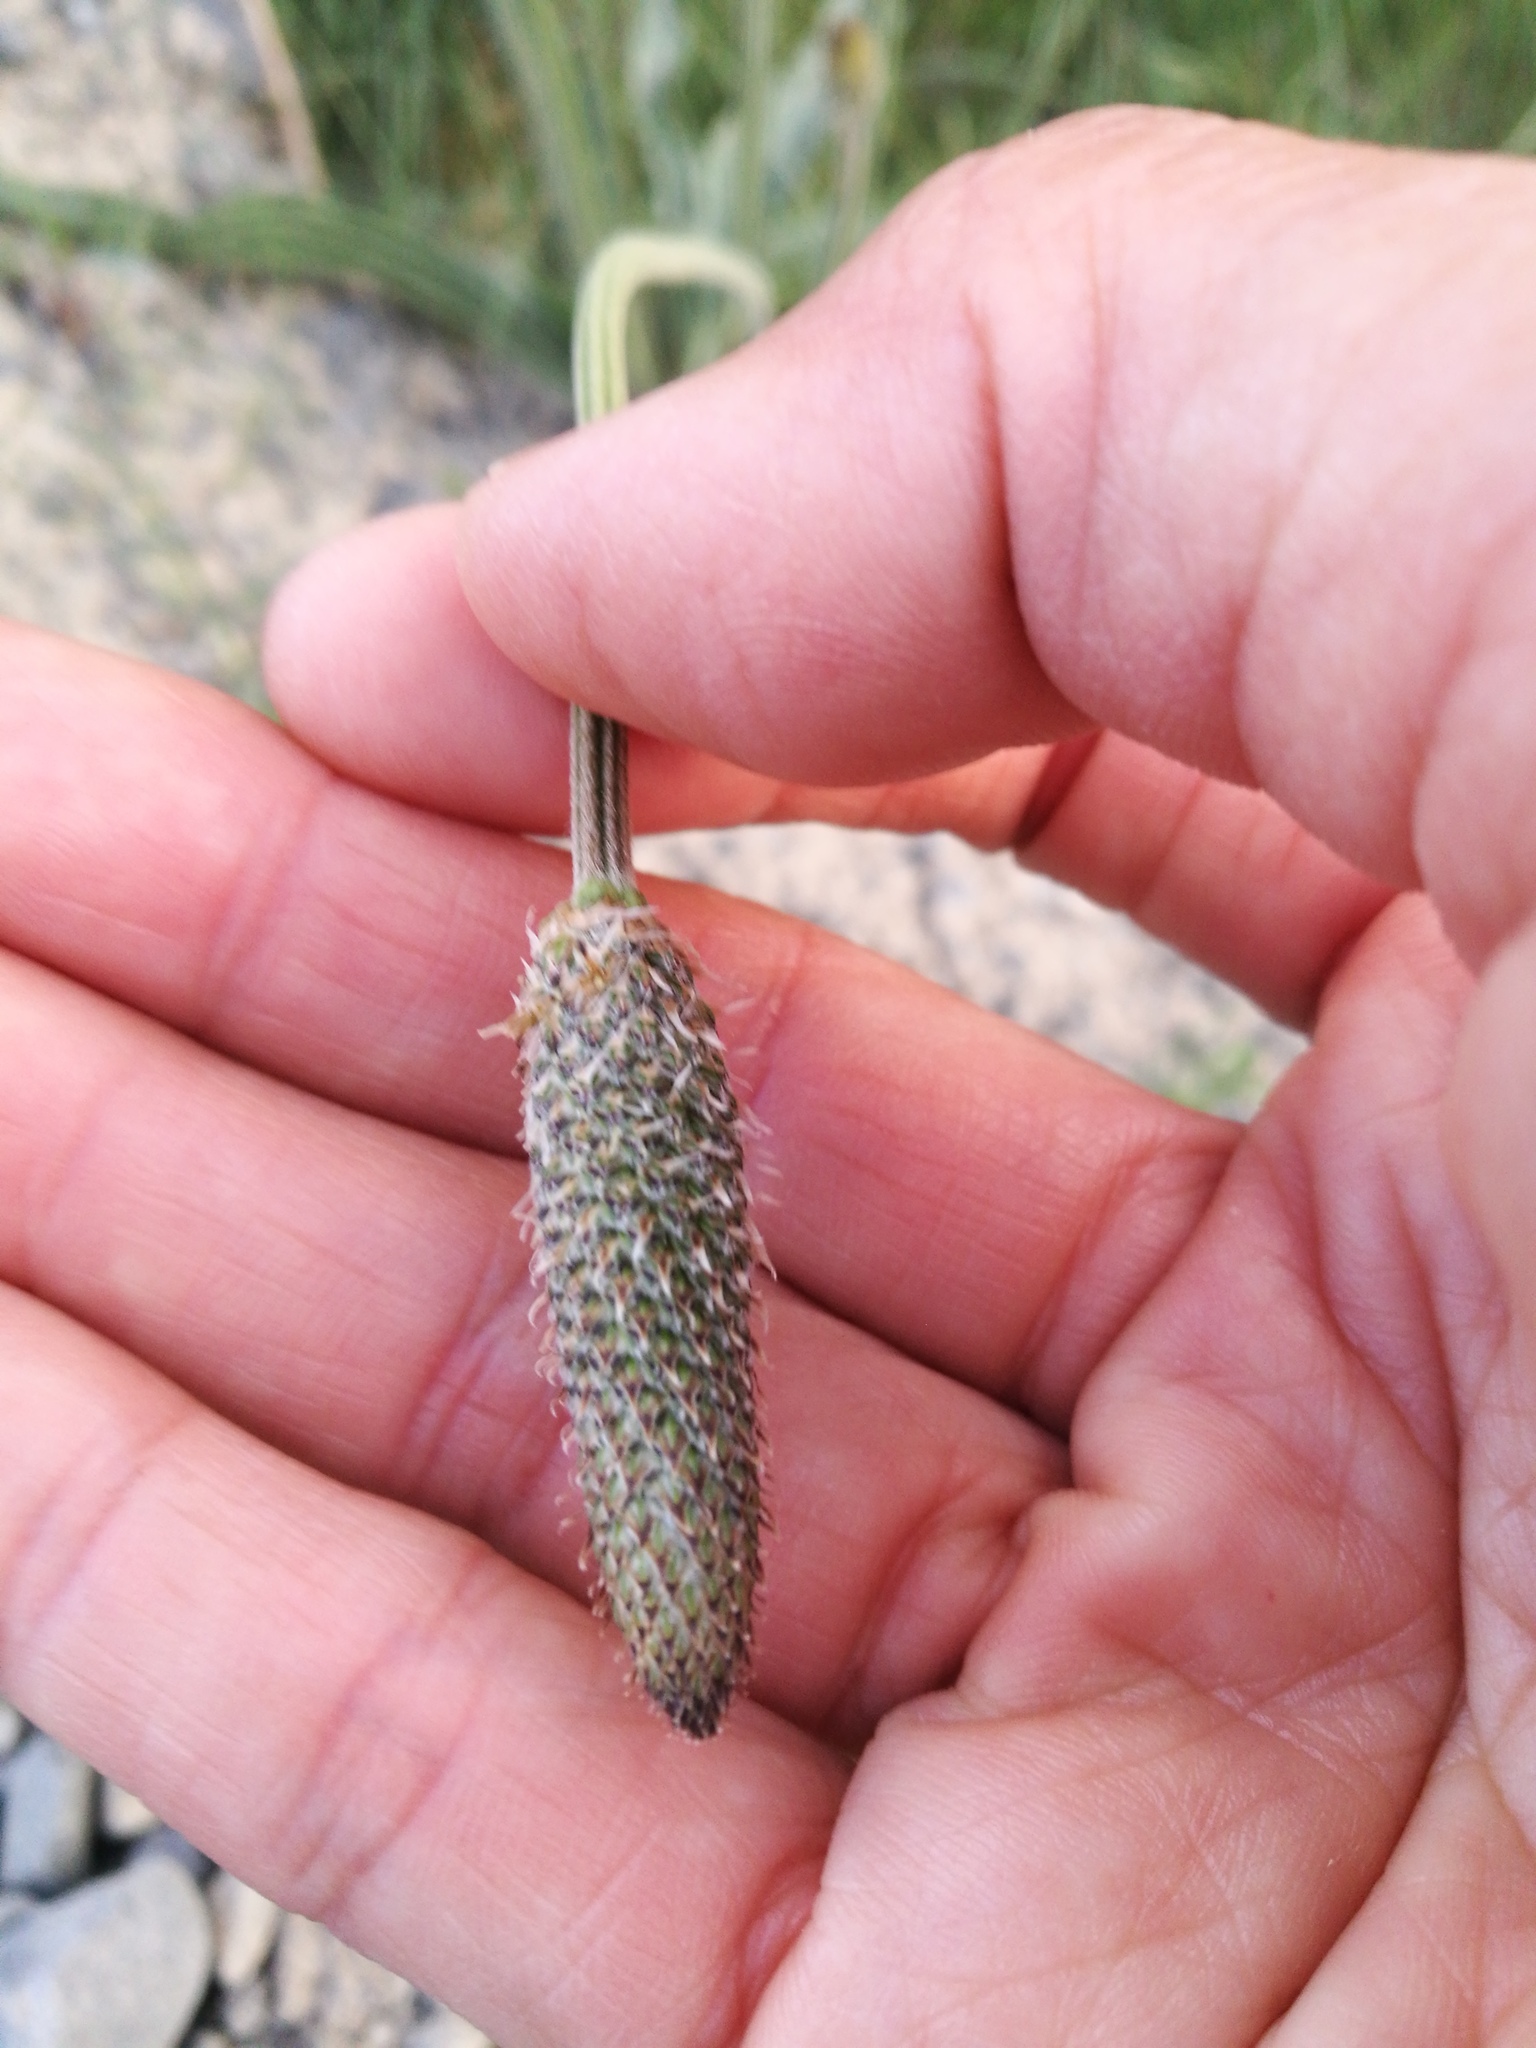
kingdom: Plantae
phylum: Tracheophyta
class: Magnoliopsida
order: Lamiales
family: Plantaginaceae
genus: Plantago
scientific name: Plantago lanceolata
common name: Ribwort plantain
